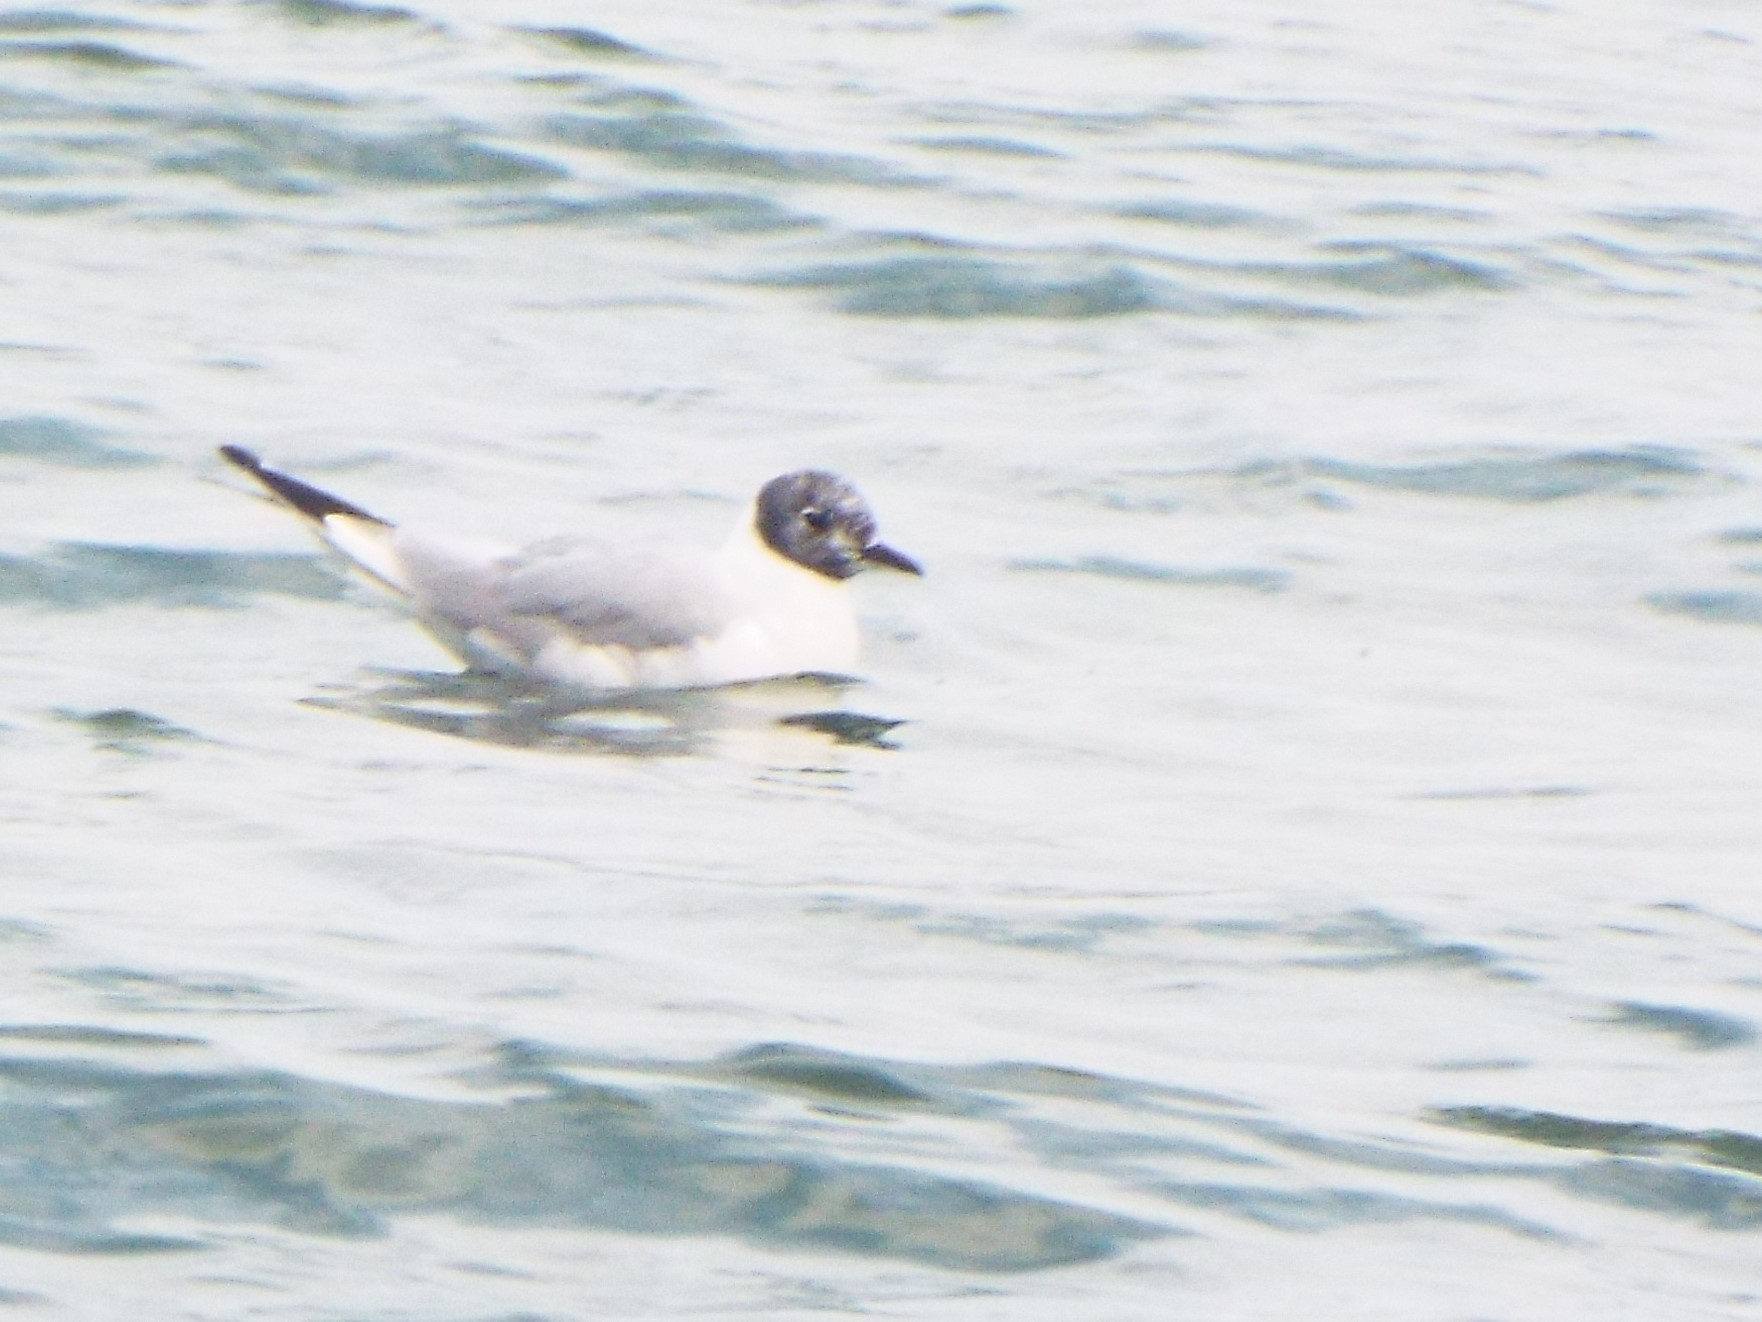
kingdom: Animalia
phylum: Chordata
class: Aves
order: Charadriiformes
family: Laridae
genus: Chroicocephalus
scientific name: Chroicocephalus philadelphia
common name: Bonaparte's gull
